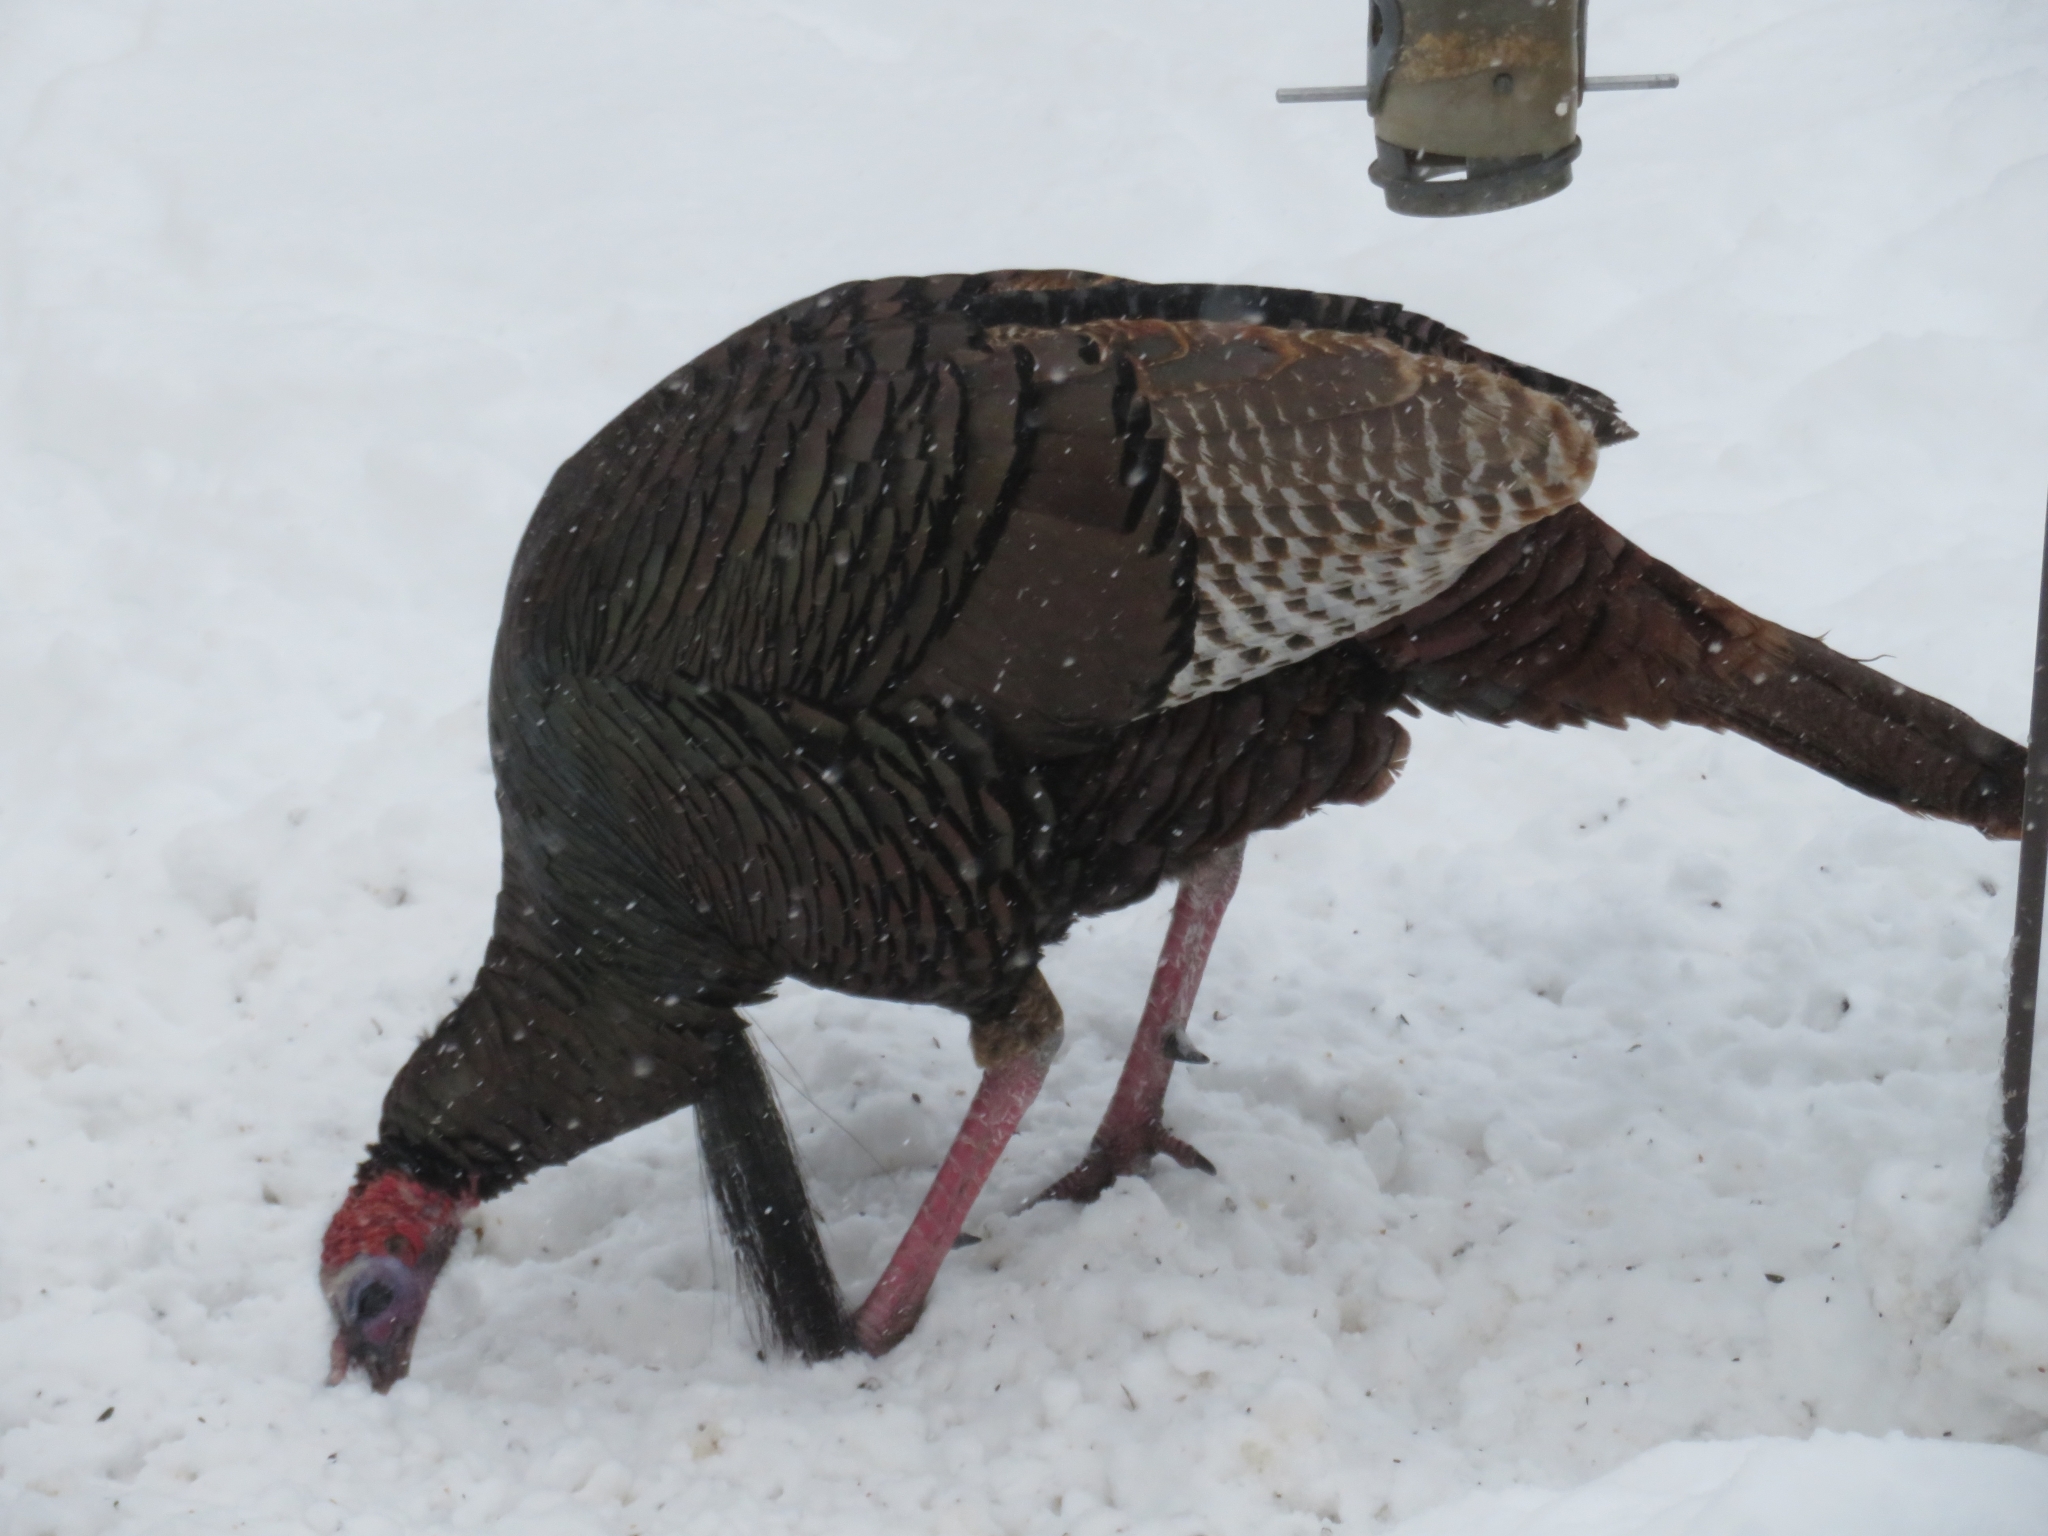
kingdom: Animalia
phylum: Chordata
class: Aves
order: Galliformes
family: Phasianidae
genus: Meleagris
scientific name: Meleagris gallopavo
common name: Wild turkey
